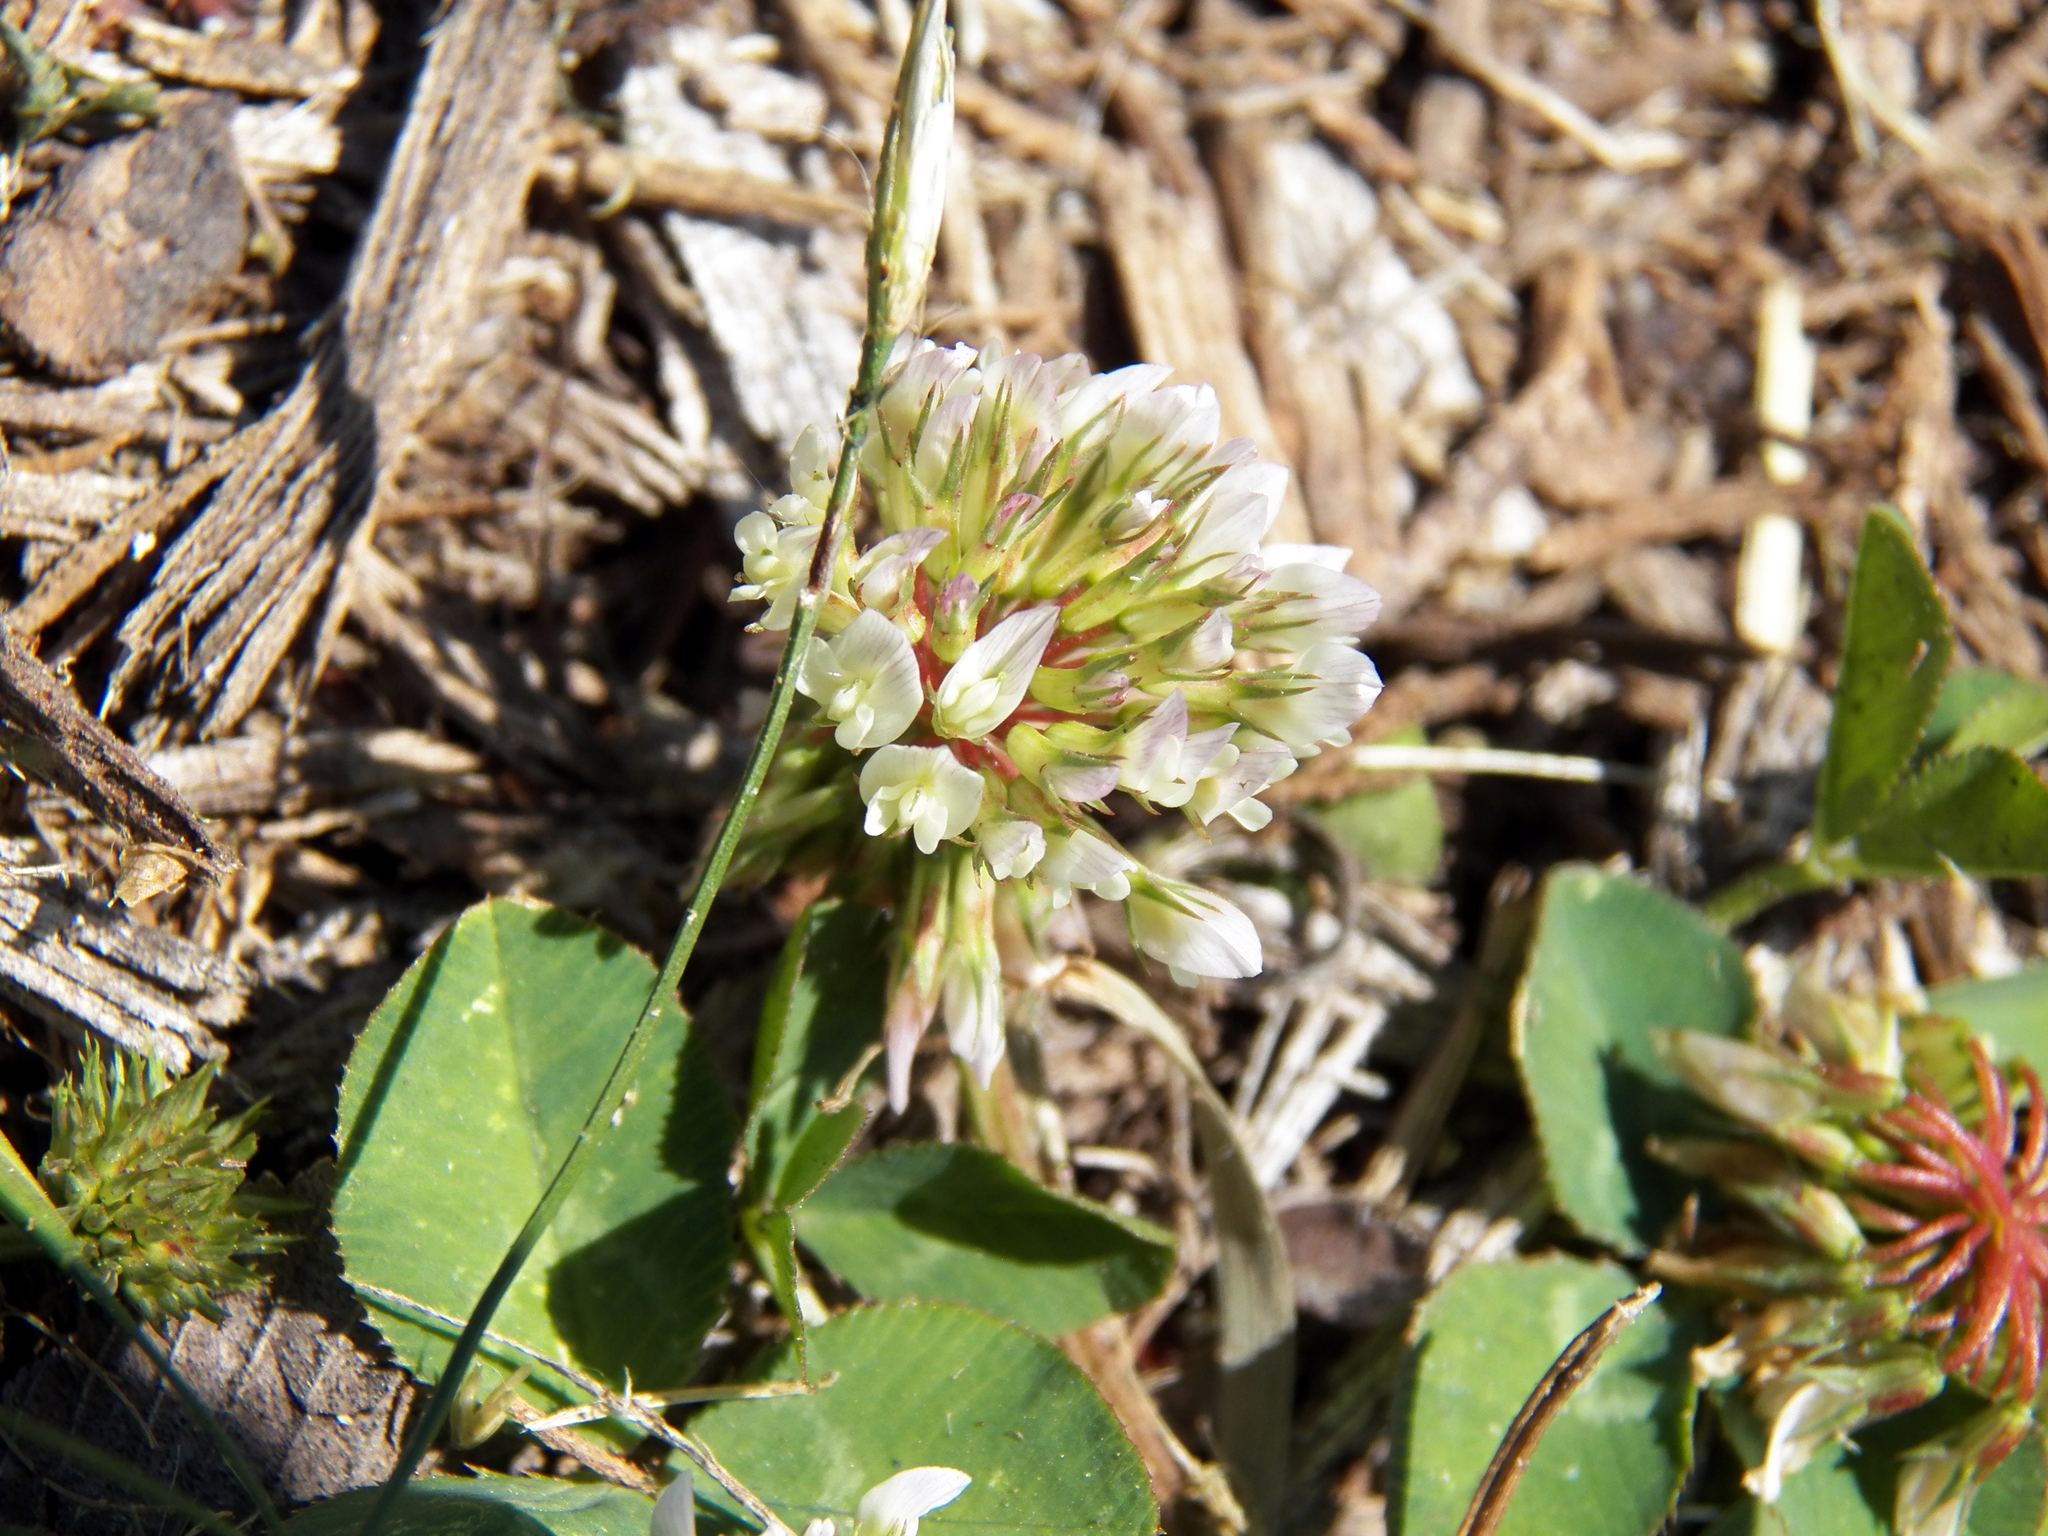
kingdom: Plantae
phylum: Tracheophyta
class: Magnoliopsida
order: Fabales
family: Fabaceae
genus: Trifolium
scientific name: Trifolium repens
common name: White clover
